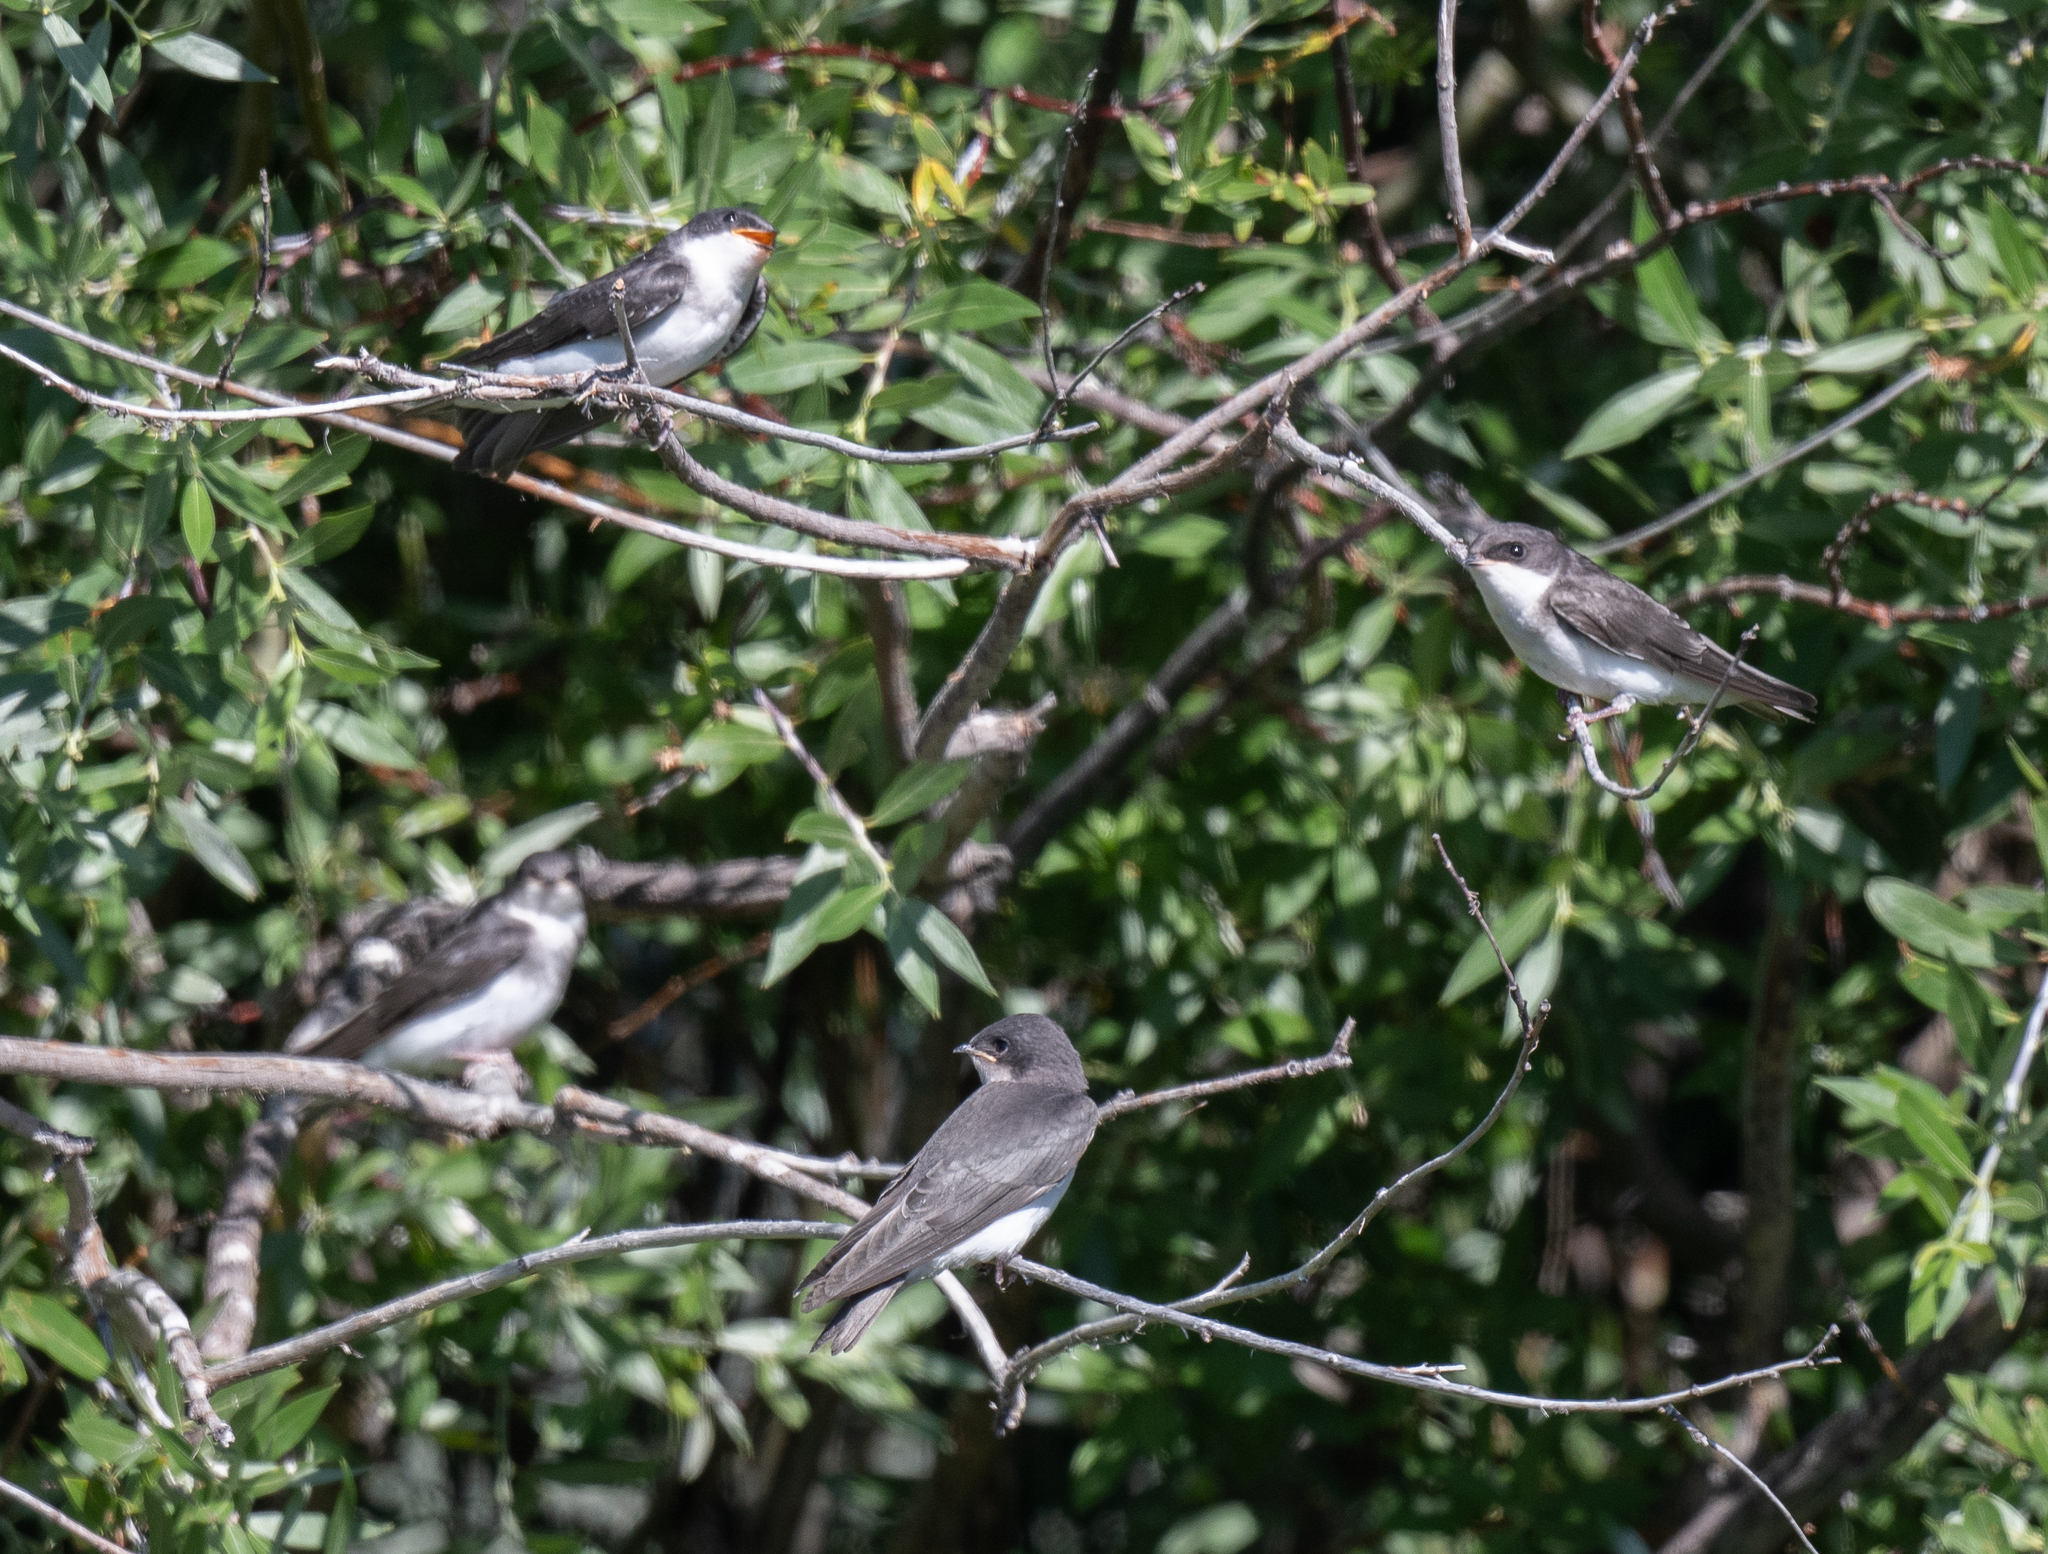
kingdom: Animalia
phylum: Chordata
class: Aves
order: Passeriformes
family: Hirundinidae
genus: Tachycineta
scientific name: Tachycineta bicolor
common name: Tree swallow
